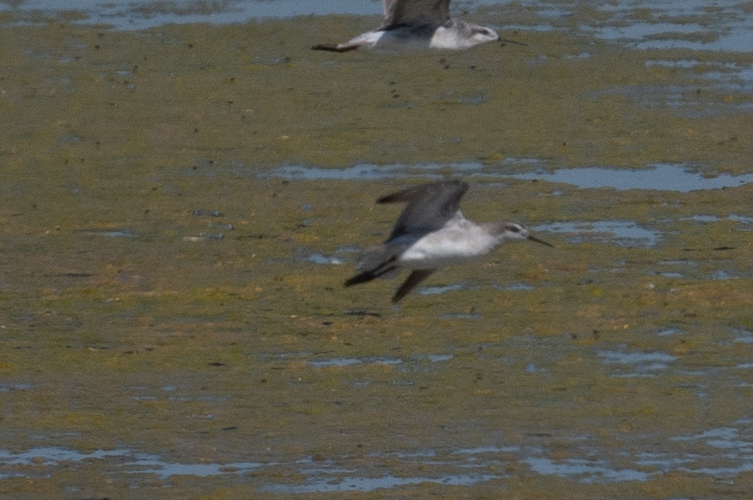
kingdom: Animalia
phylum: Chordata
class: Aves
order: Charadriiformes
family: Scolopacidae
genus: Phalaropus
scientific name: Phalaropus tricolor
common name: Wilson's phalarope
